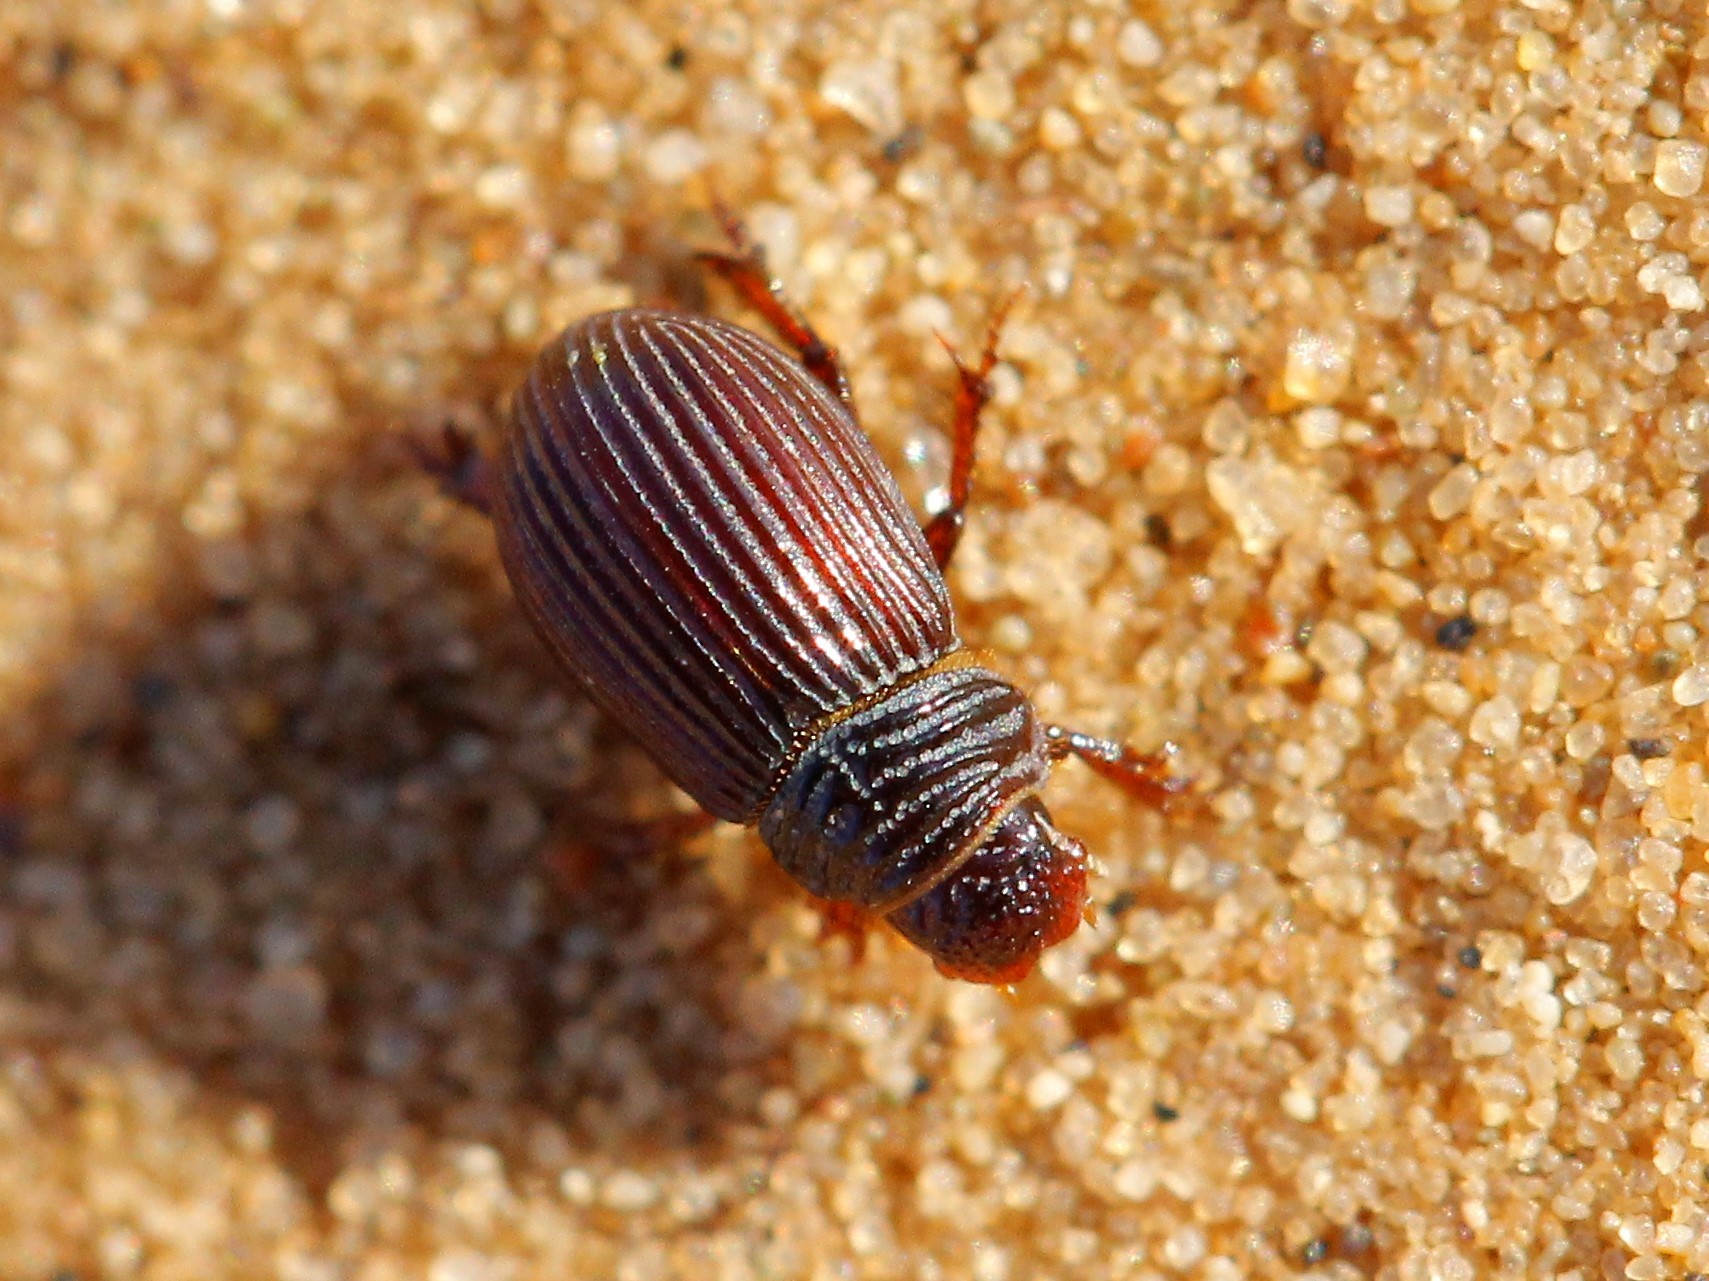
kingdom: Animalia
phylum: Arthropoda
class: Insecta
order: Coleoptera
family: Scarabaeidae
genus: Psammodius
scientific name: Psammodius asper
